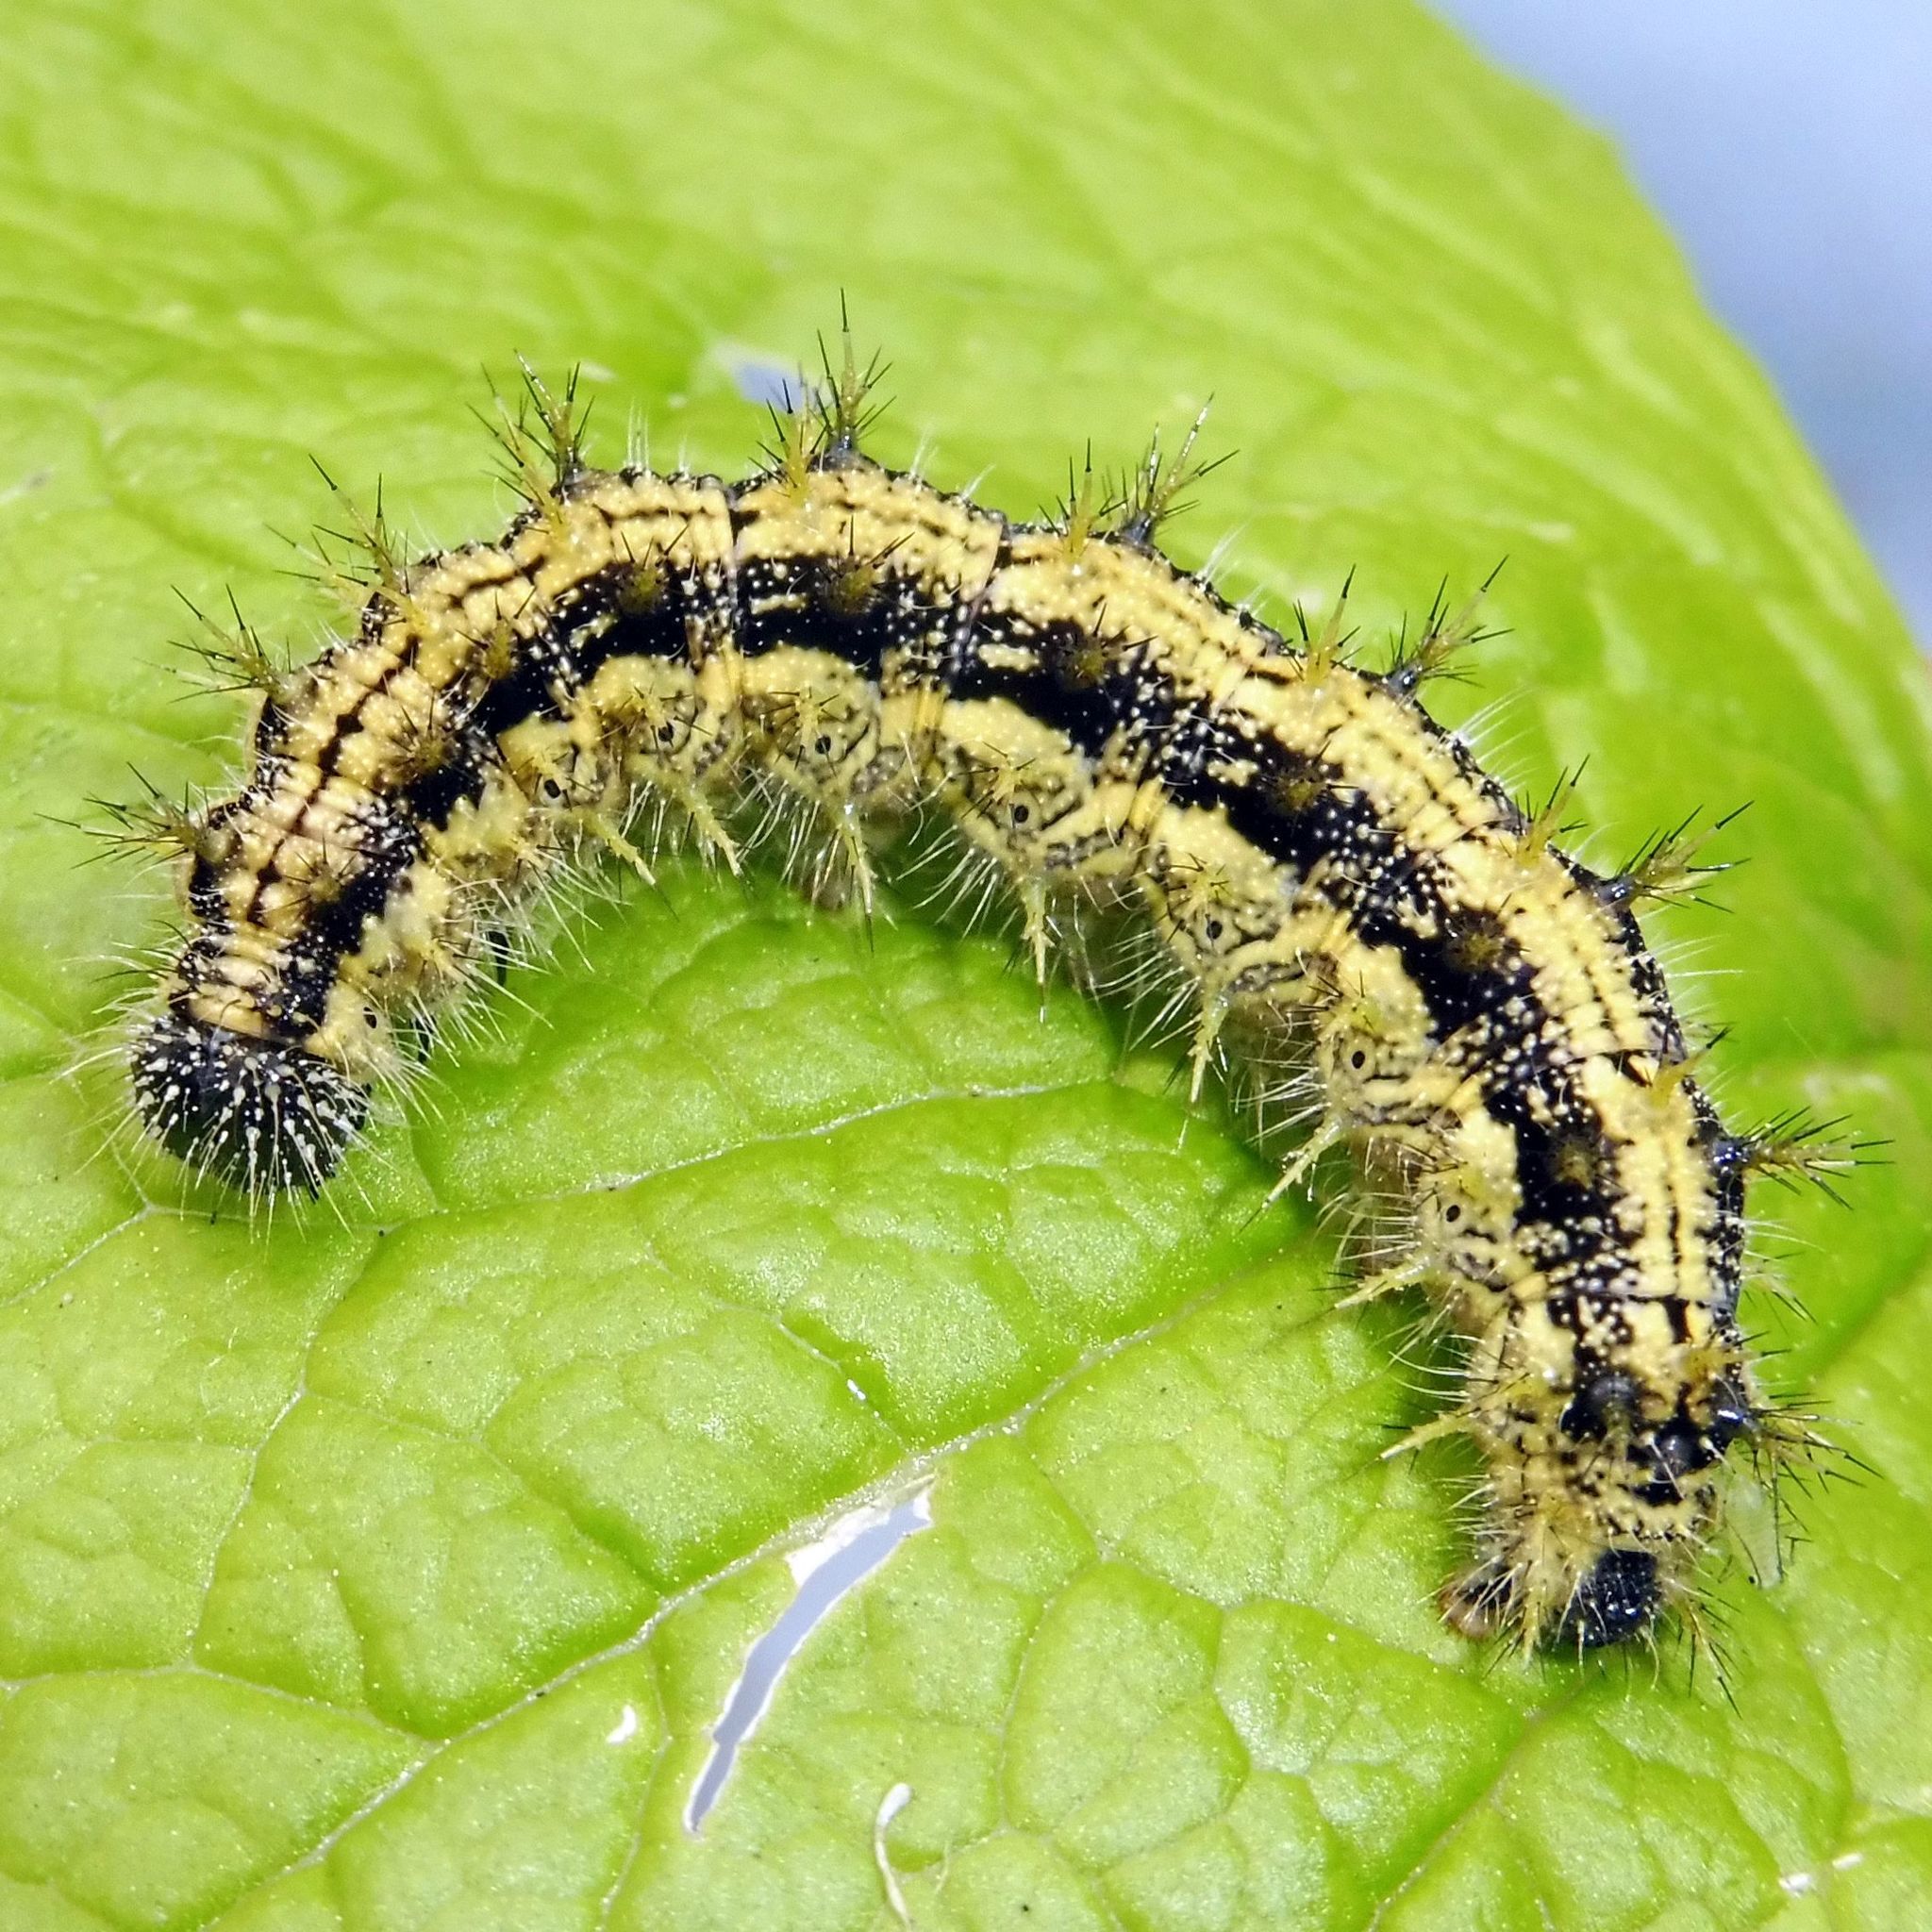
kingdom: Animalia
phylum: Arthropoda
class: Insecta
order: Lepidoptera
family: Nymphalidae
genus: Aglais
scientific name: Aglais urticae
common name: Small tortoiseshell
